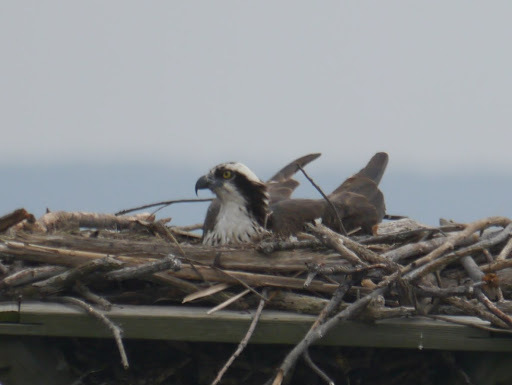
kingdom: Animalia
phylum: Chordata
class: Aves
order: Accipitriformes
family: Pandionidae
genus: Pandion
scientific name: Pandion haliaetus
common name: Osprey
